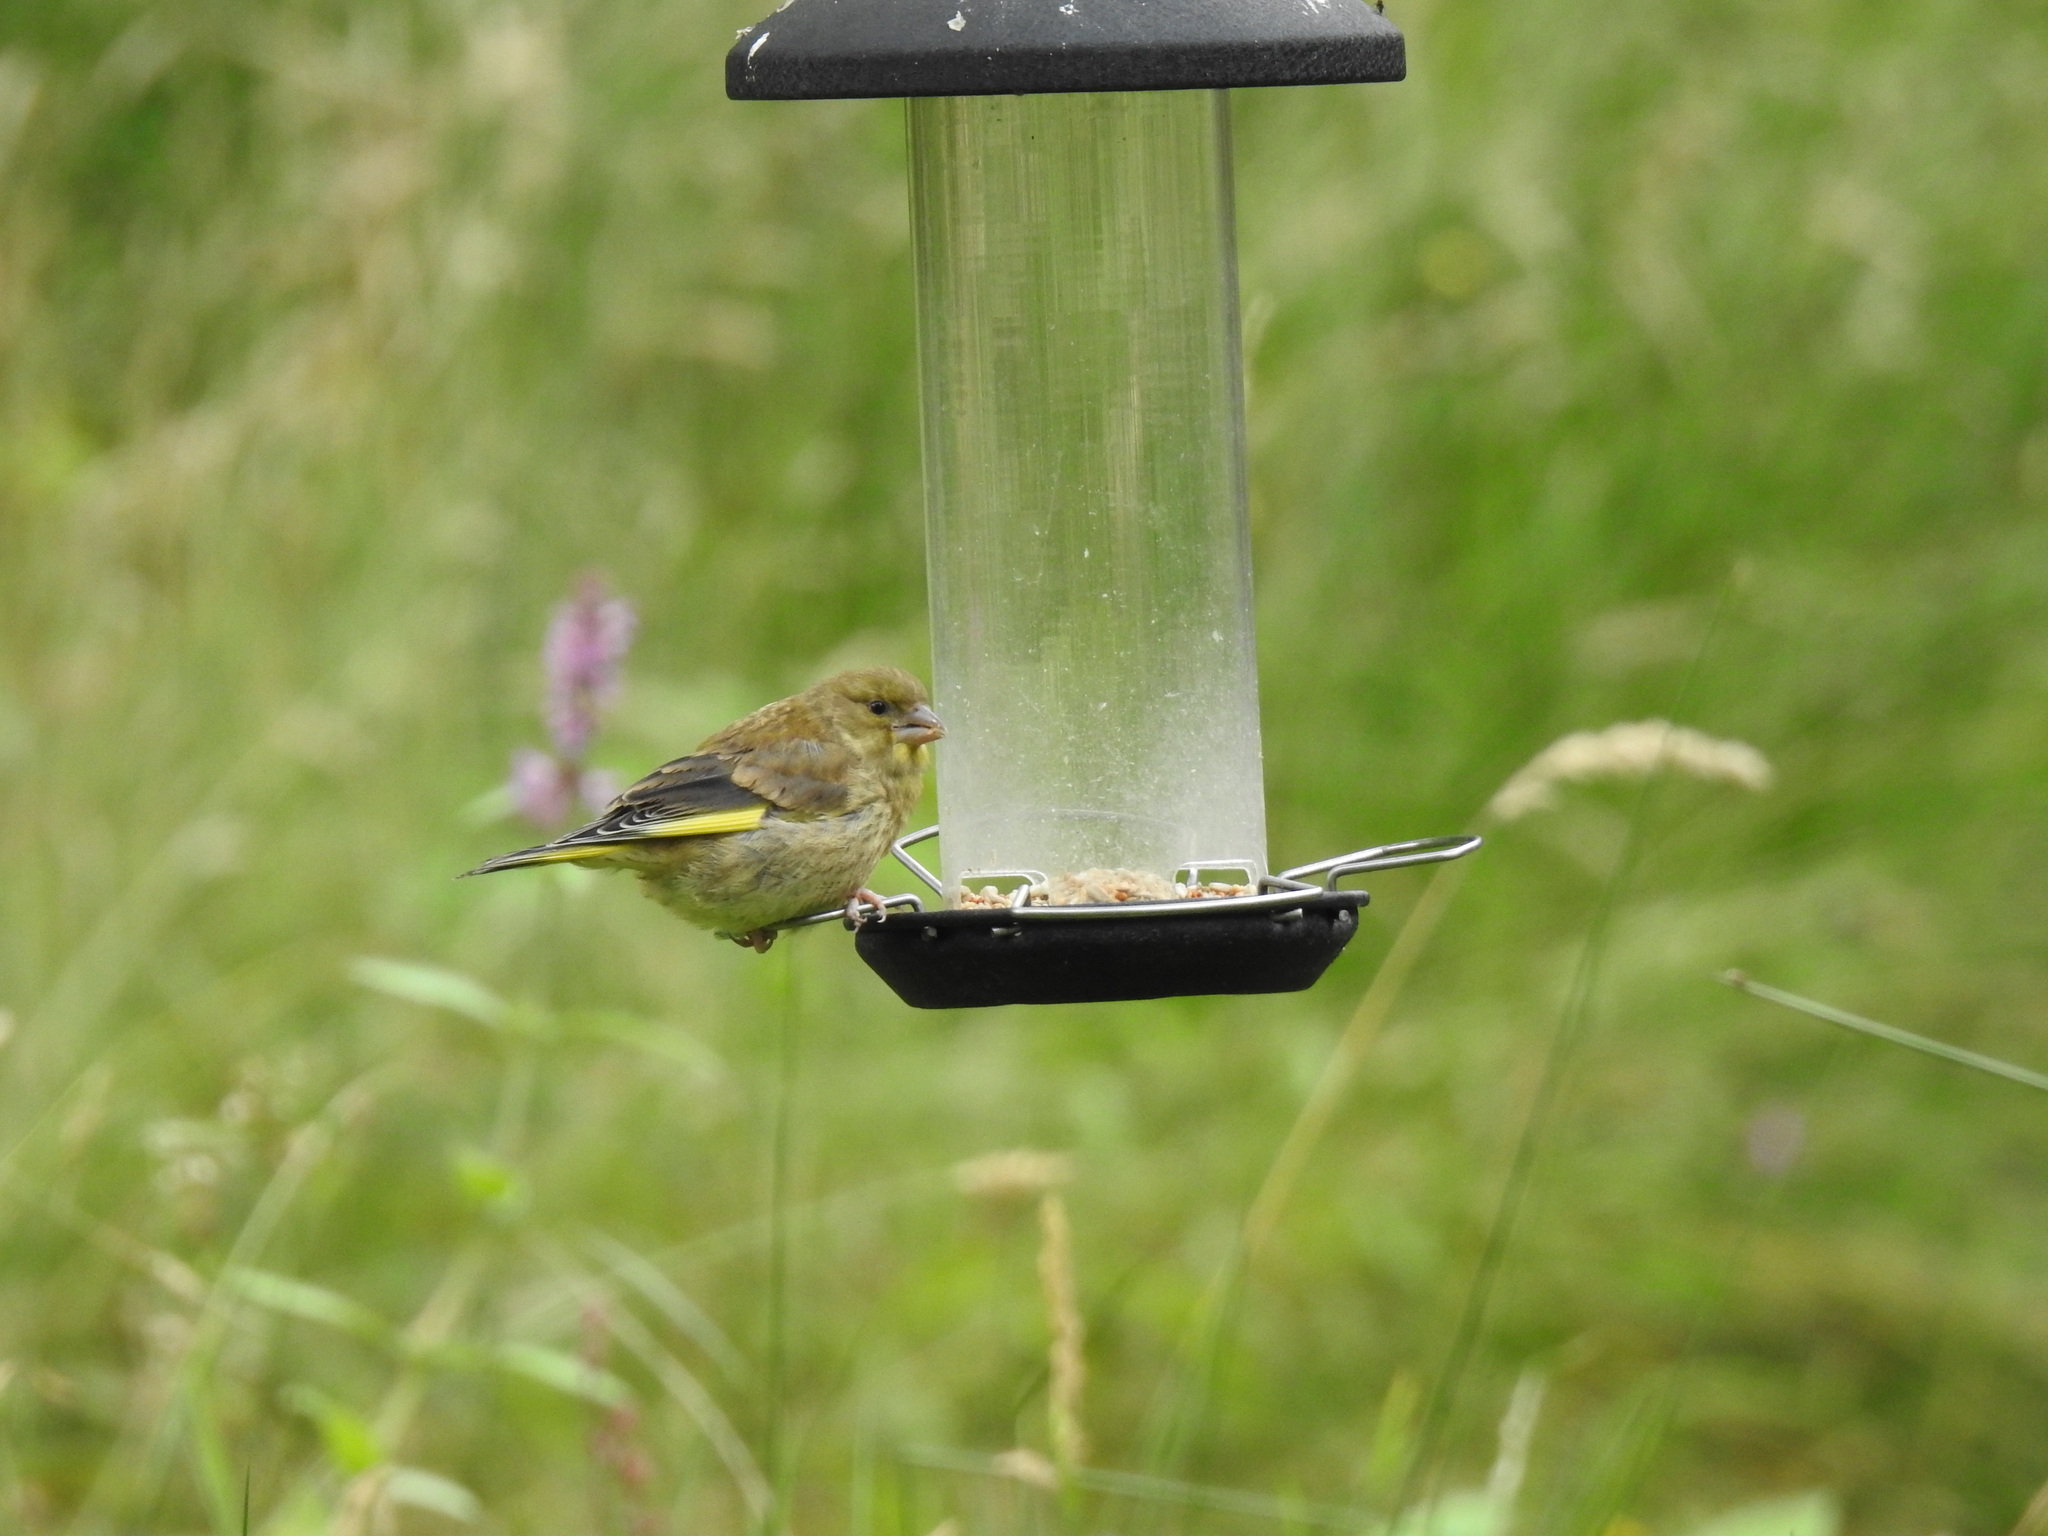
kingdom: Plantae
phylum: Tracheophyta
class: Liliopsida
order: Poales
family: Poaceae
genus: Chloris
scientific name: Chloris chloris
